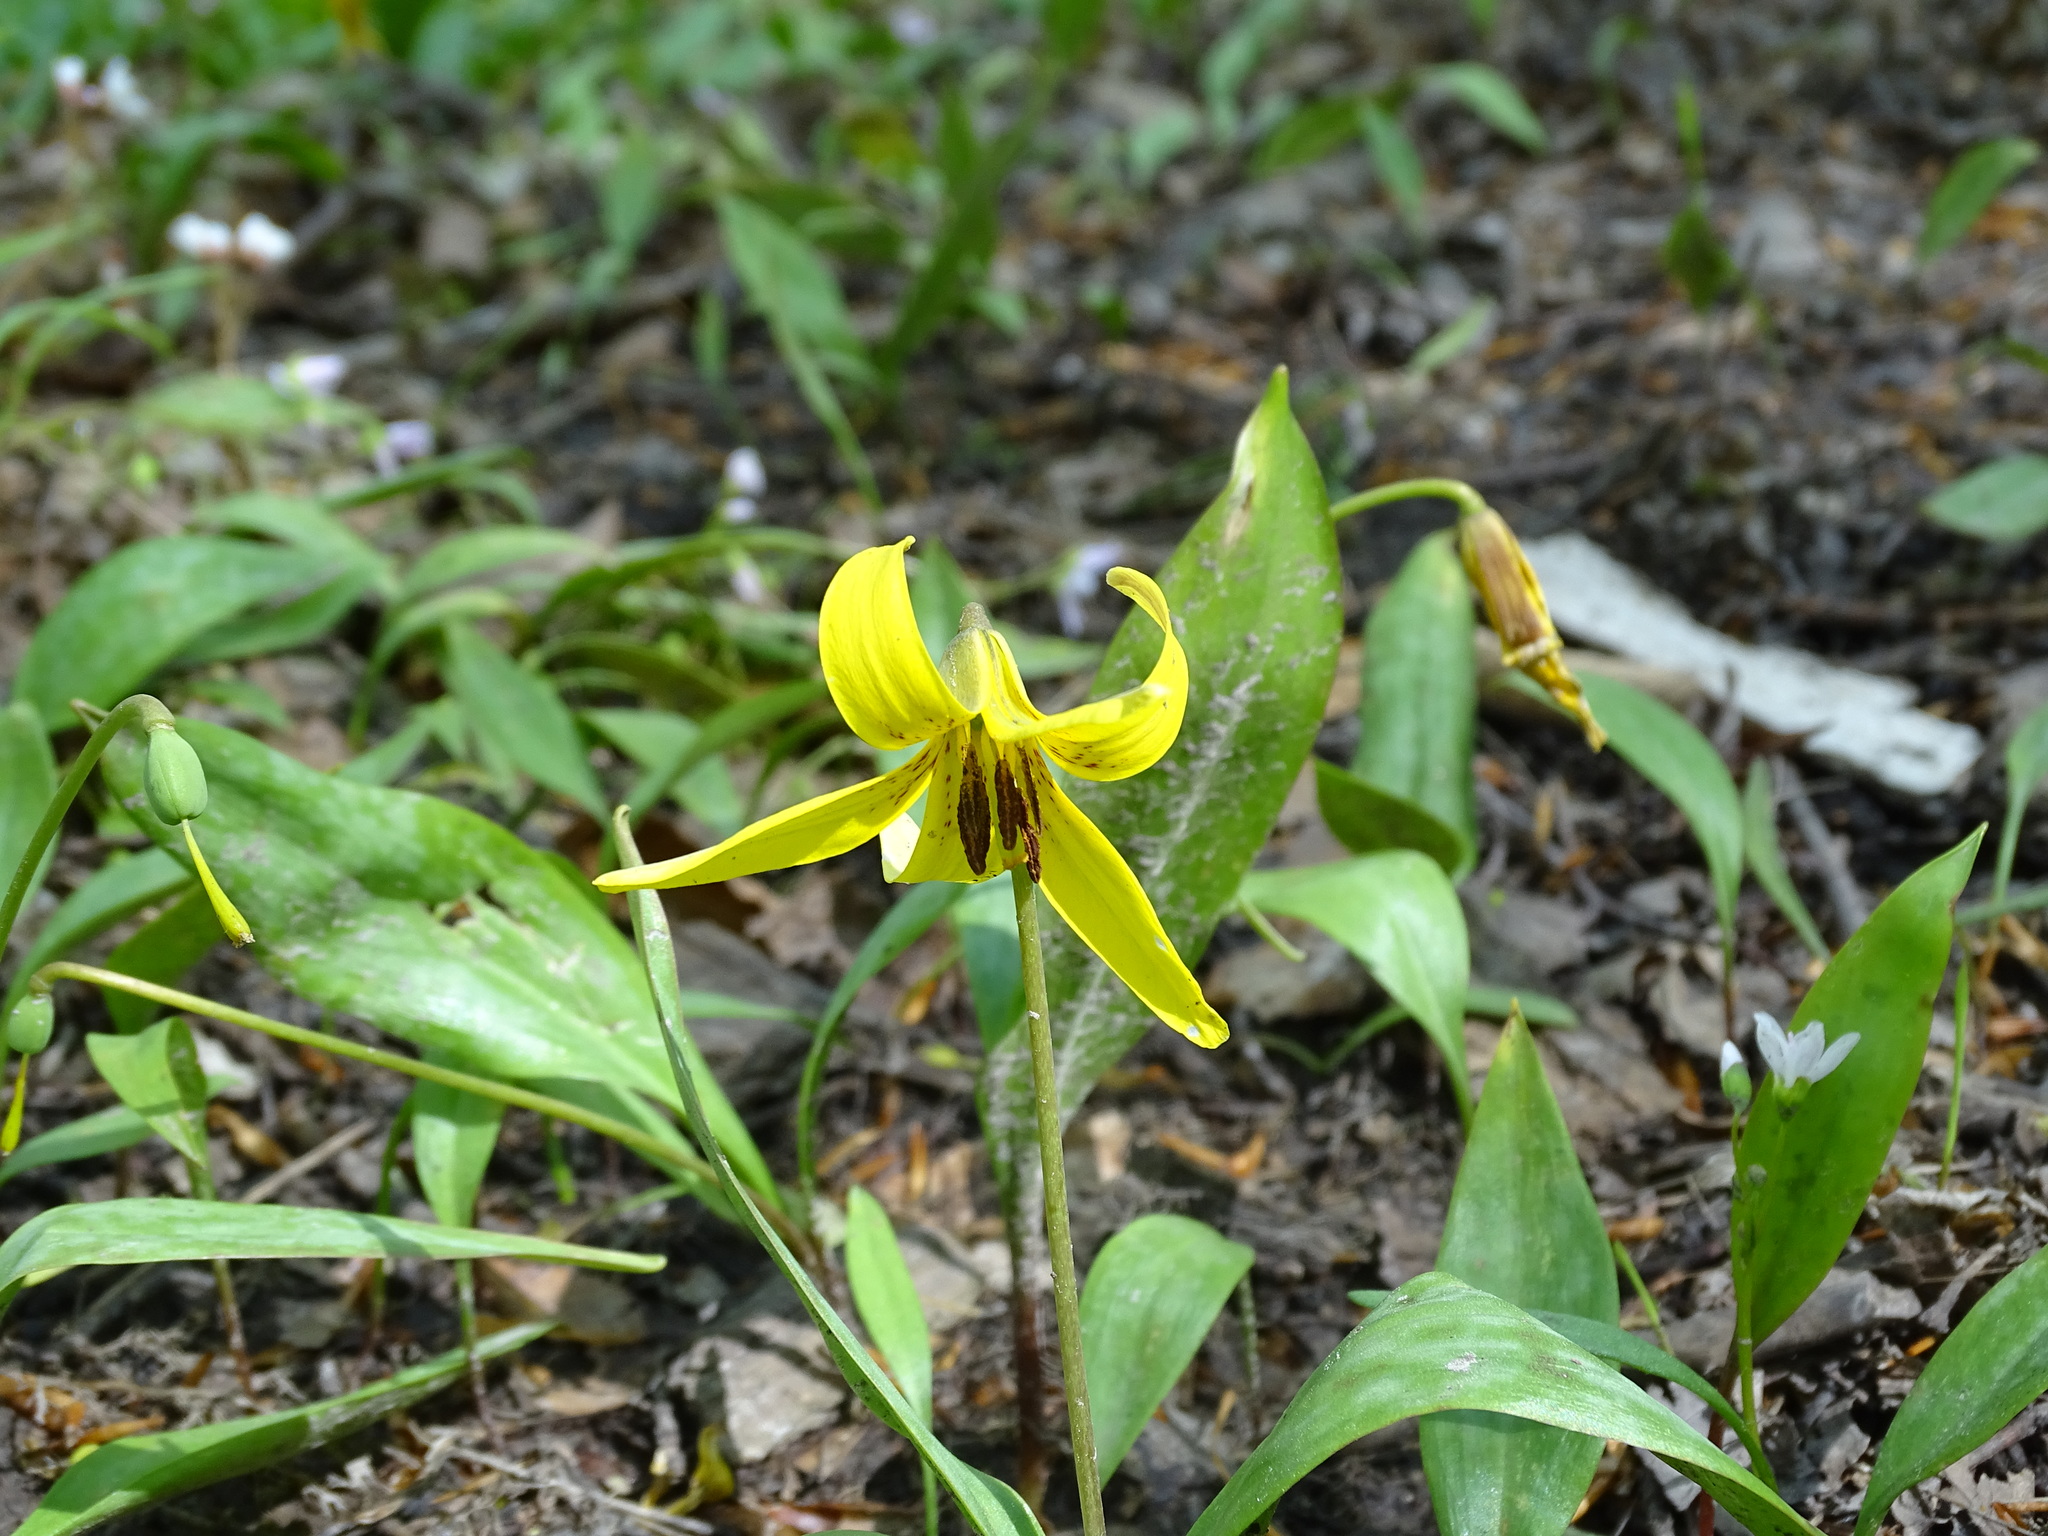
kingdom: Plantae
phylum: Tracheophyta
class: Liliopsida
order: Liliales
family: Liliaceae
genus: Erythronium
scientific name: Erythronium americanum
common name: Yellow adder's-tongue
